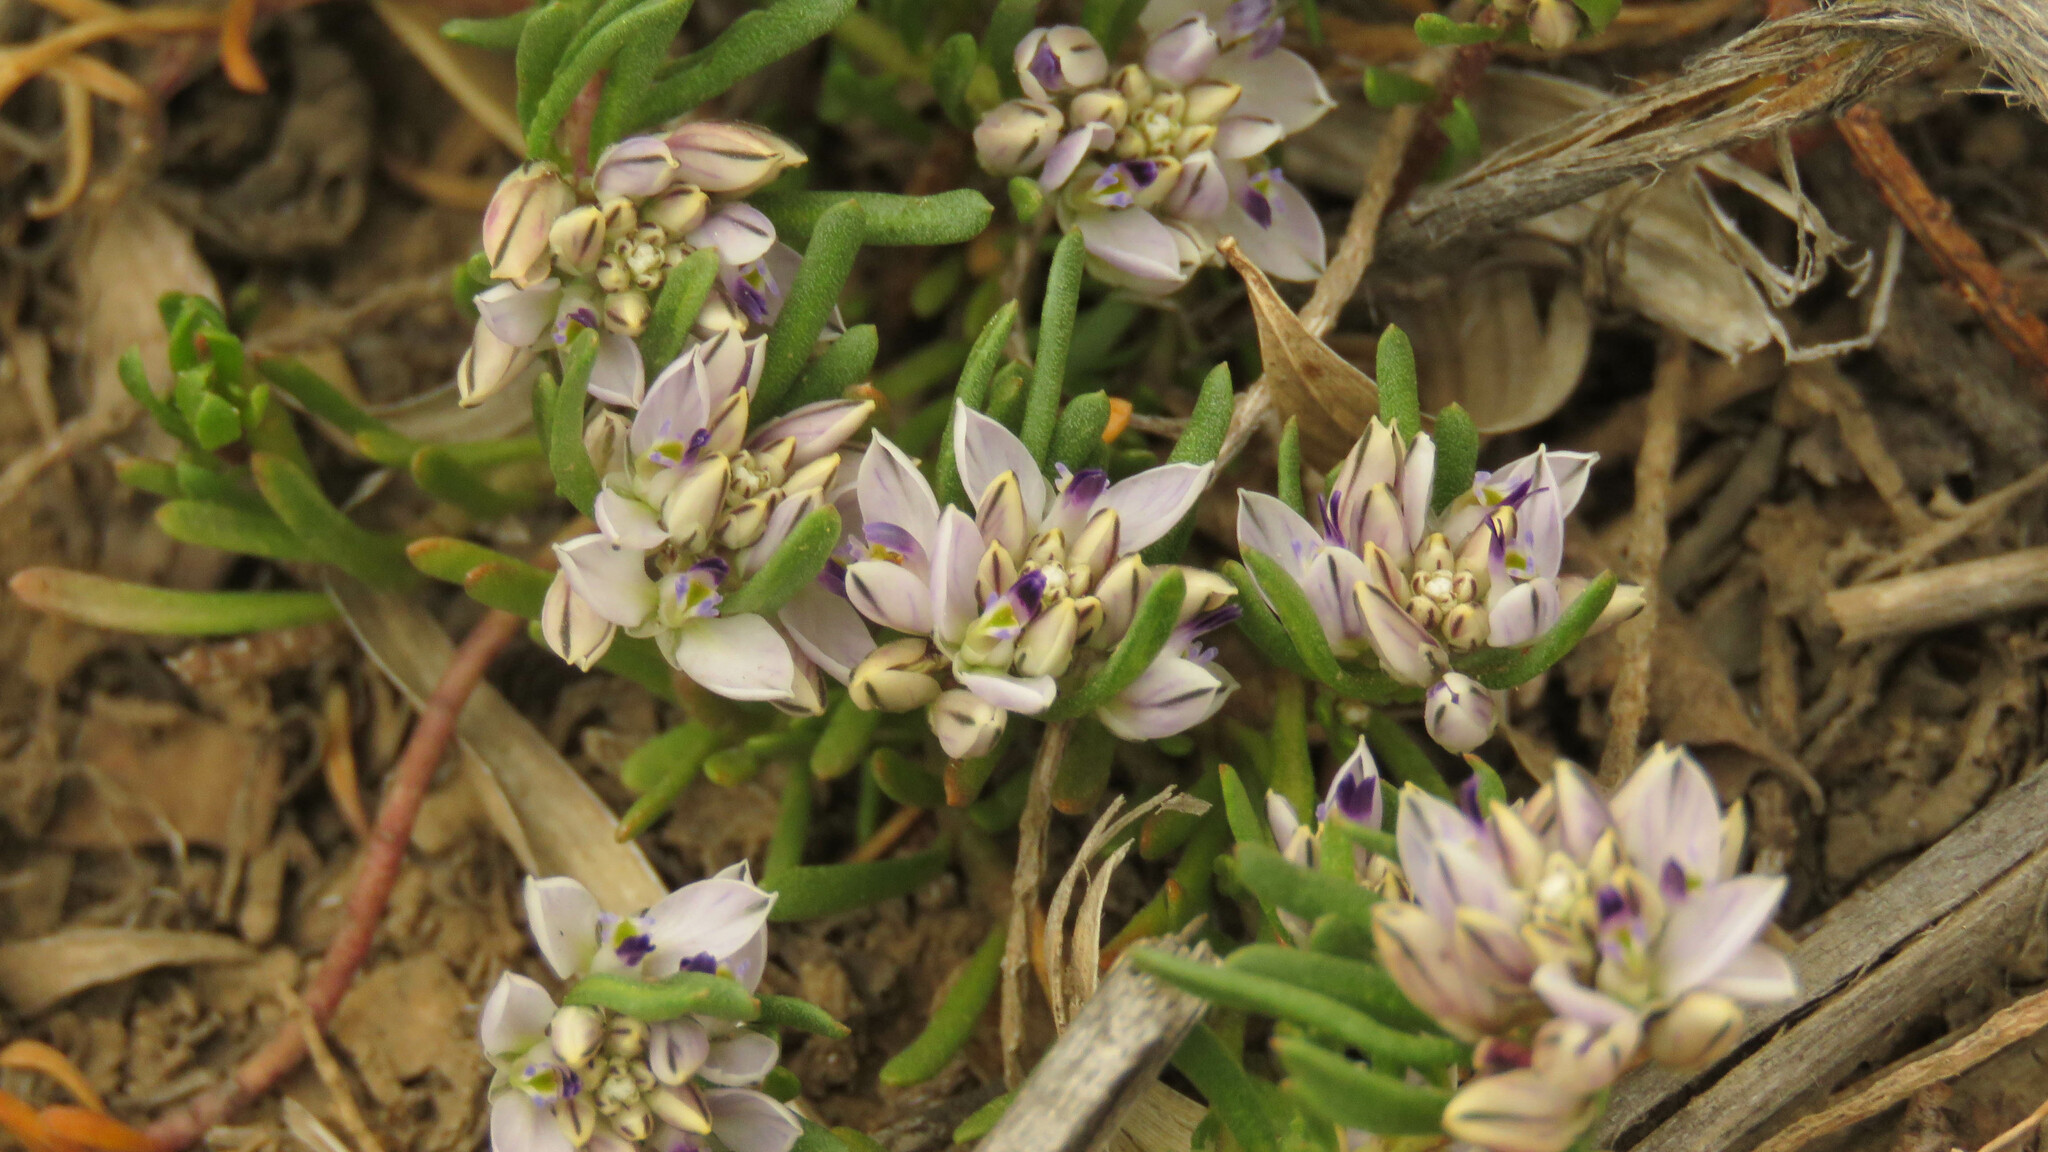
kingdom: Plantae
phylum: Tracheophyta
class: Magnoliopsida
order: Fabales
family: Polygalaceae
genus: Polygala
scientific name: Polygala salasiana
